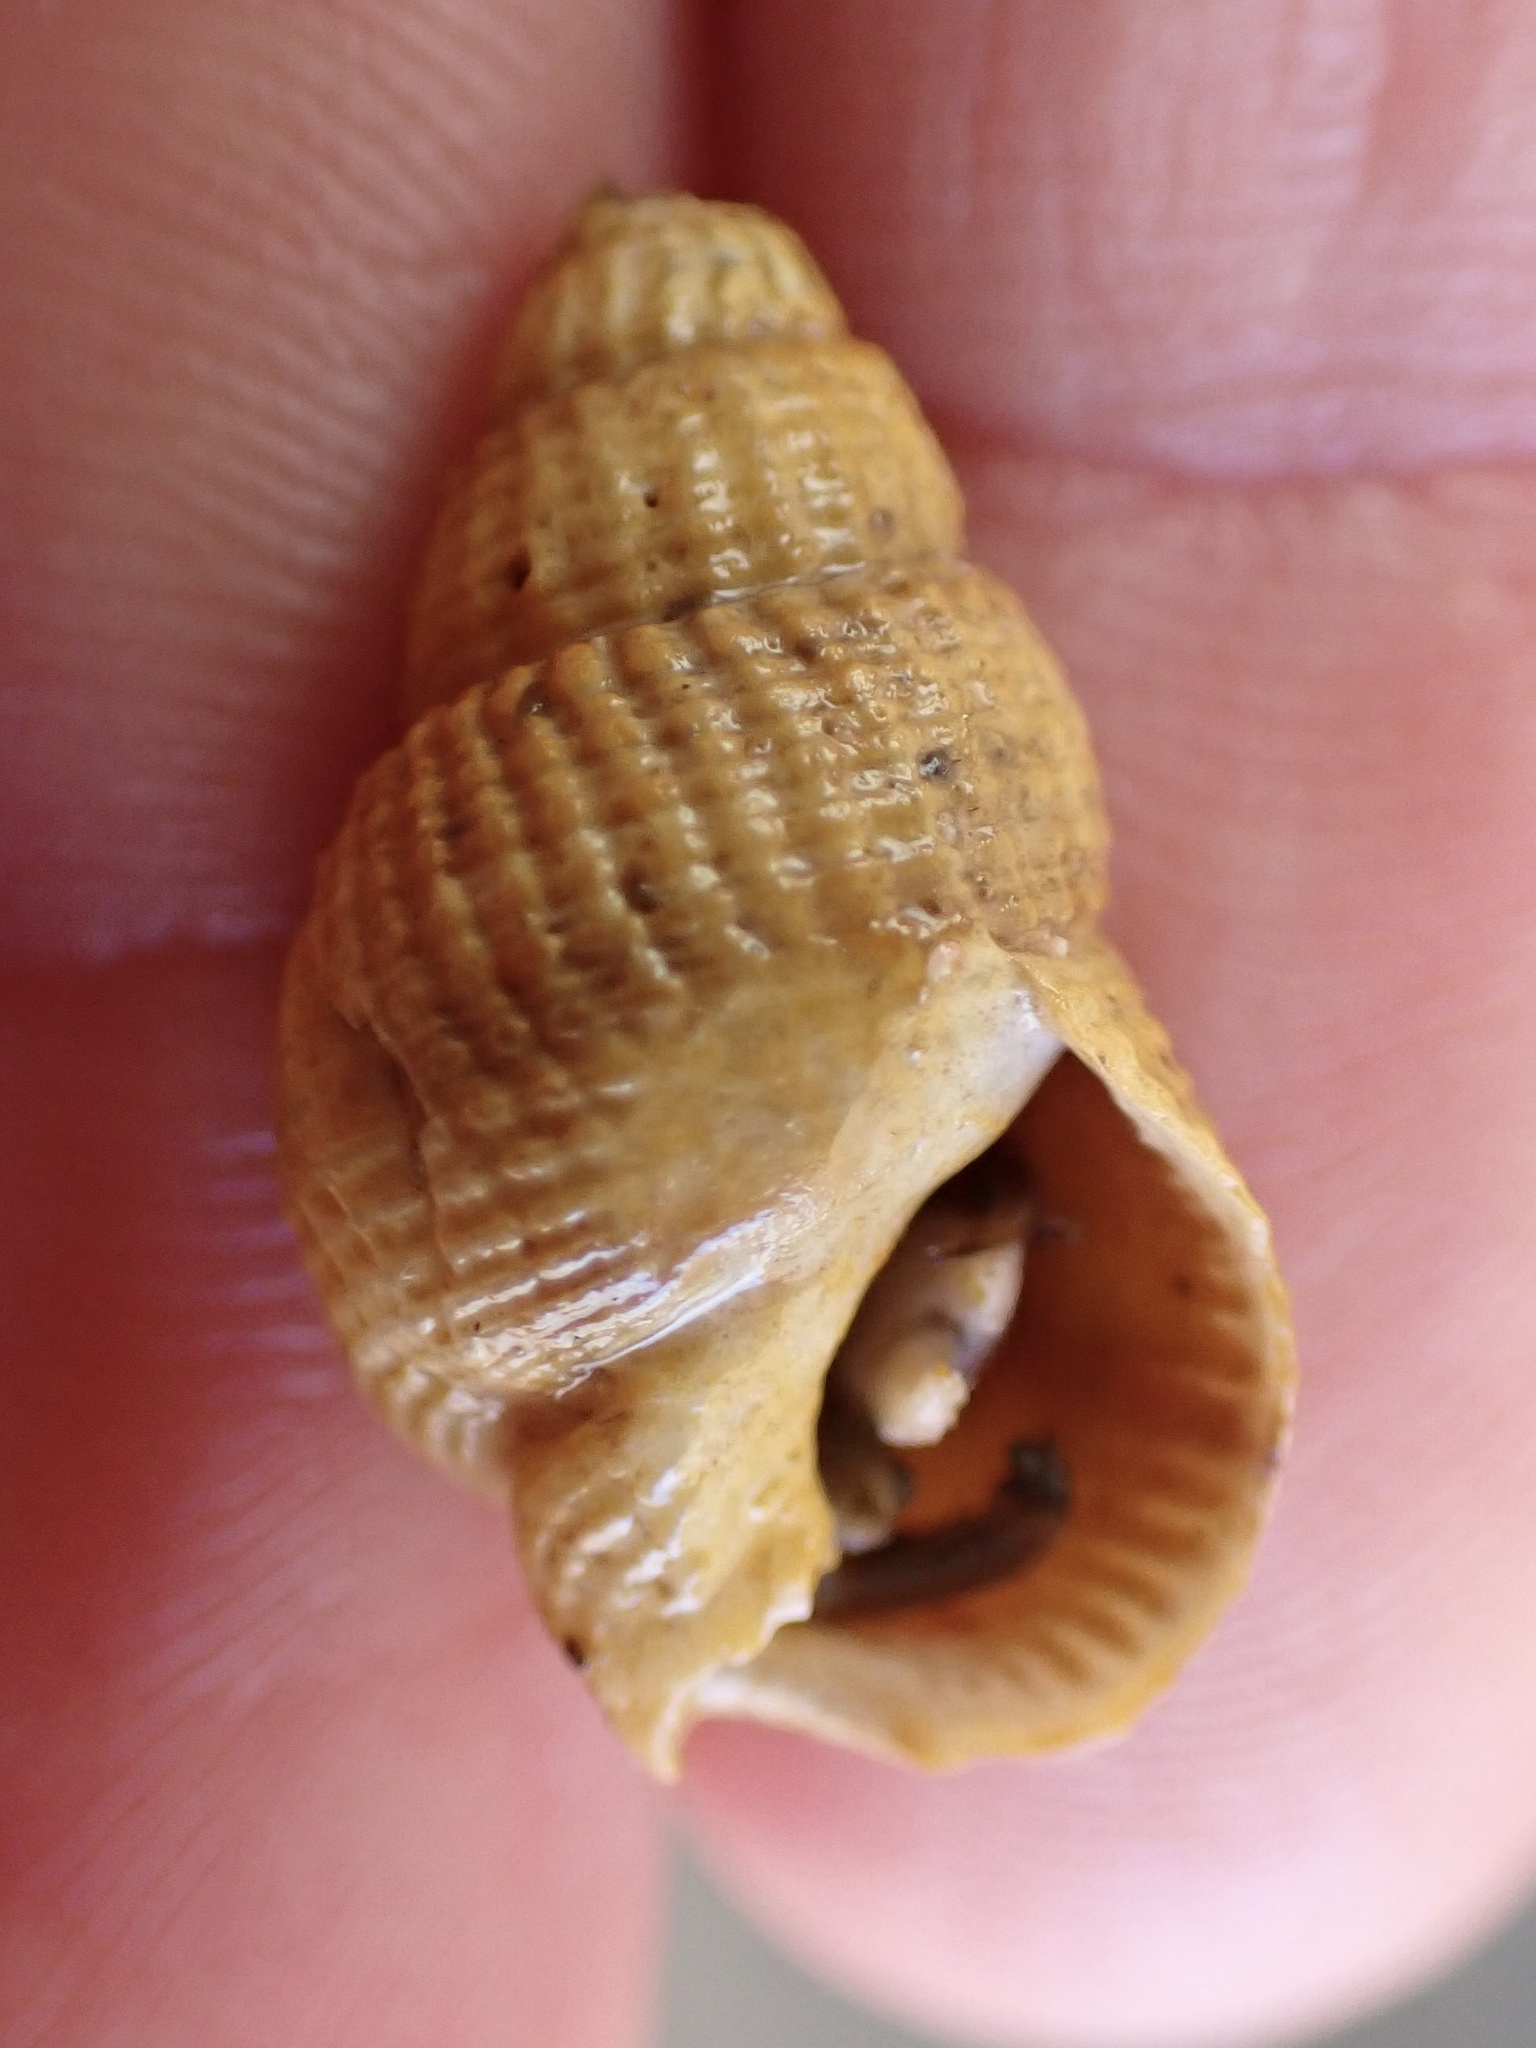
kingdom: Animalia
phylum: Mollusca
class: Gastropoda
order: Neogastropoda
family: Nassariidae
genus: Caesia
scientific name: Caesia perpinguis
